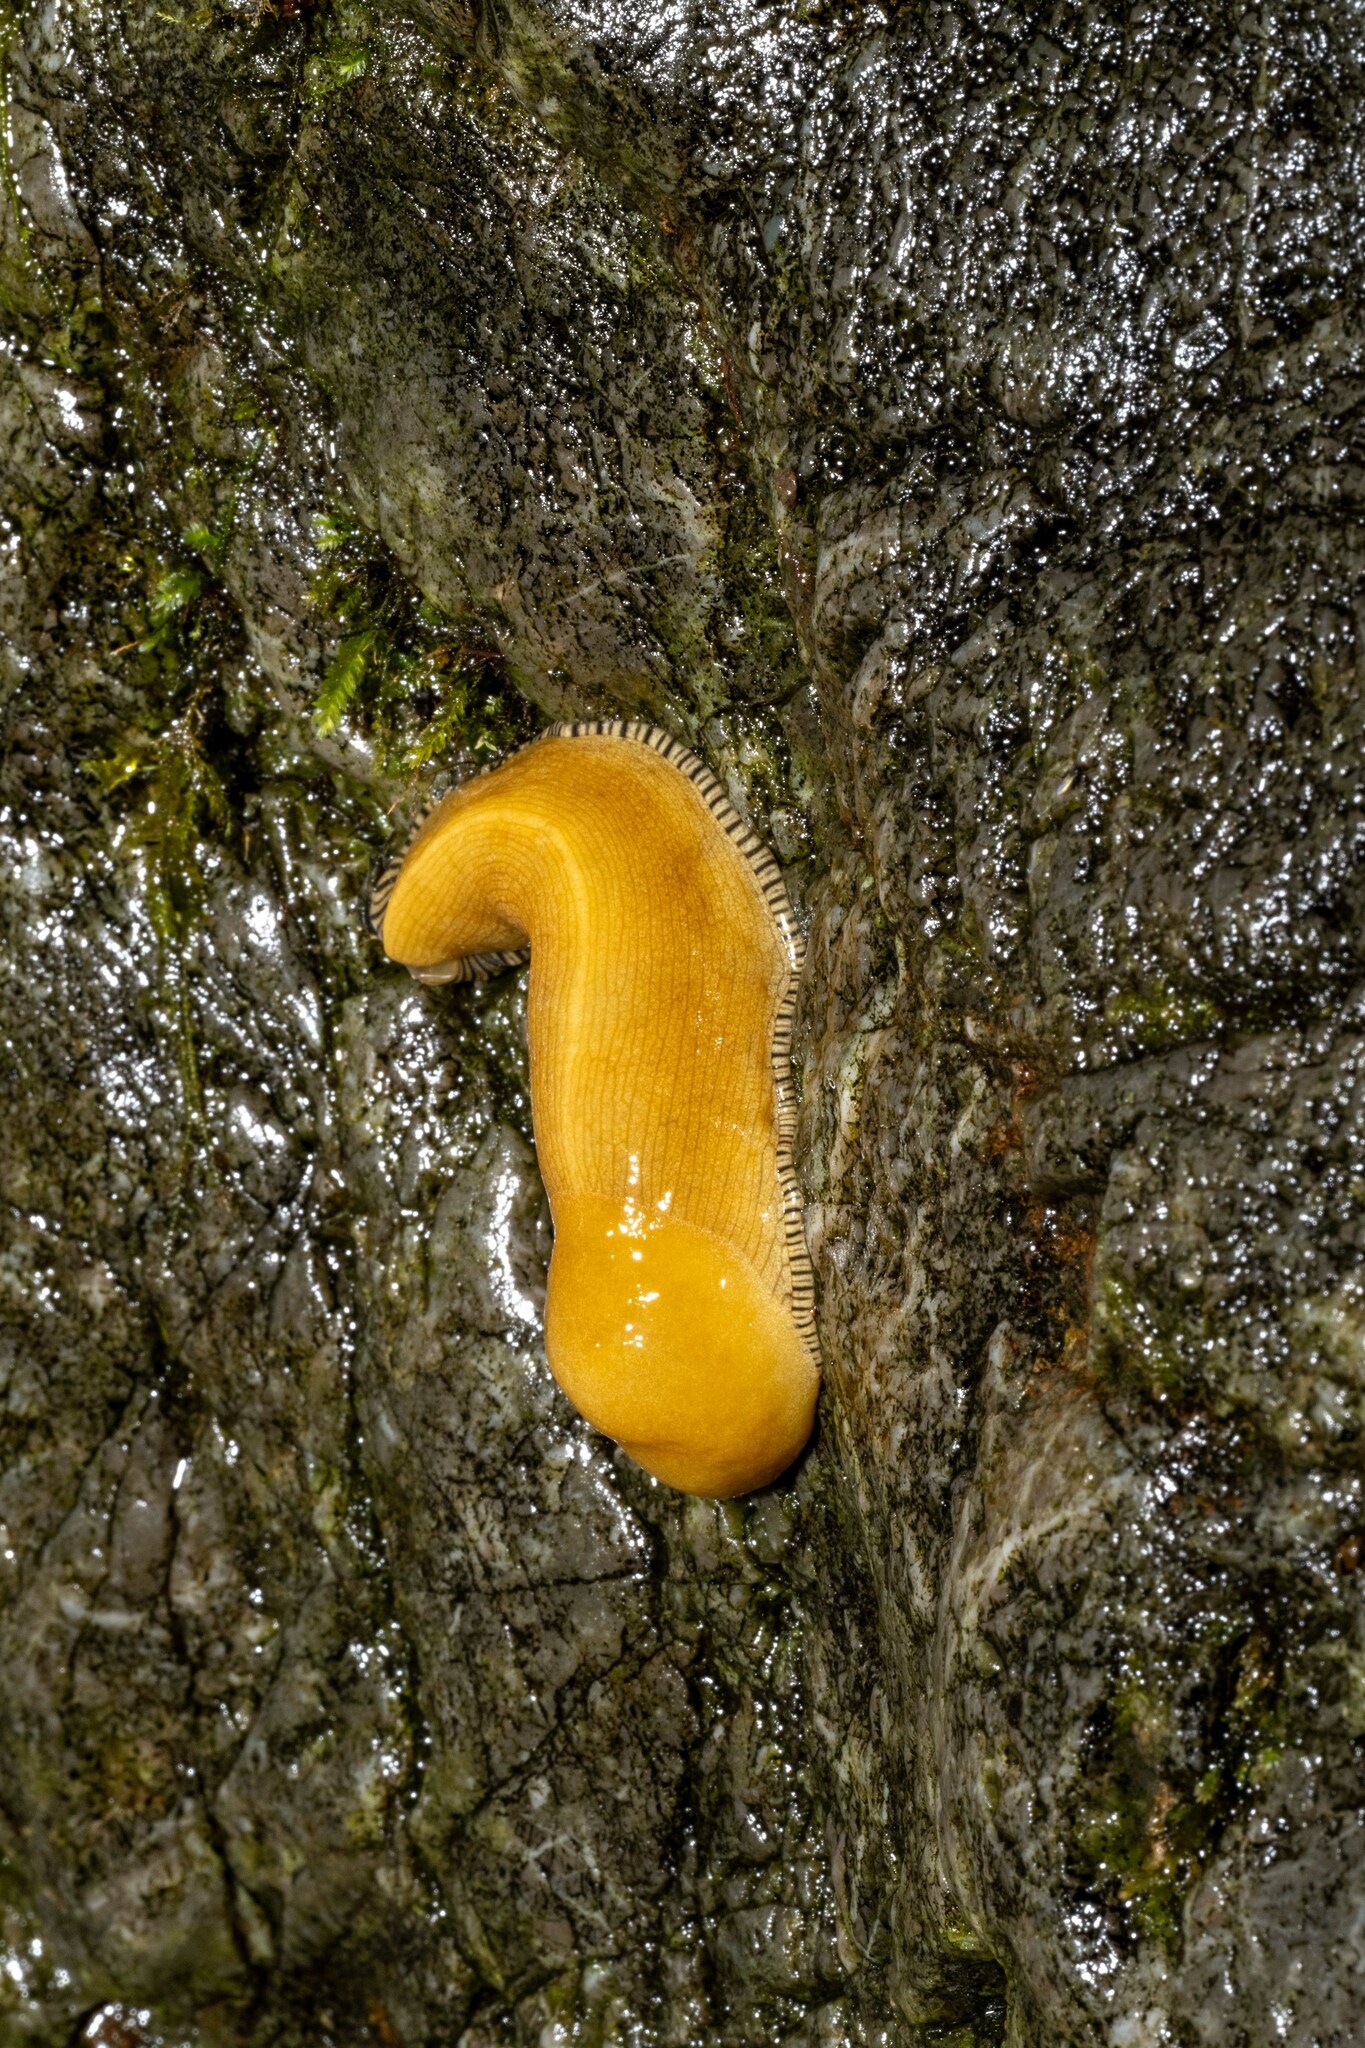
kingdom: Animalia
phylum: Mollusca
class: Gastropoda
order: Stylommatophora
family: Ariolimacidae
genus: Ariolimax
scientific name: Ariolimax buttoni
